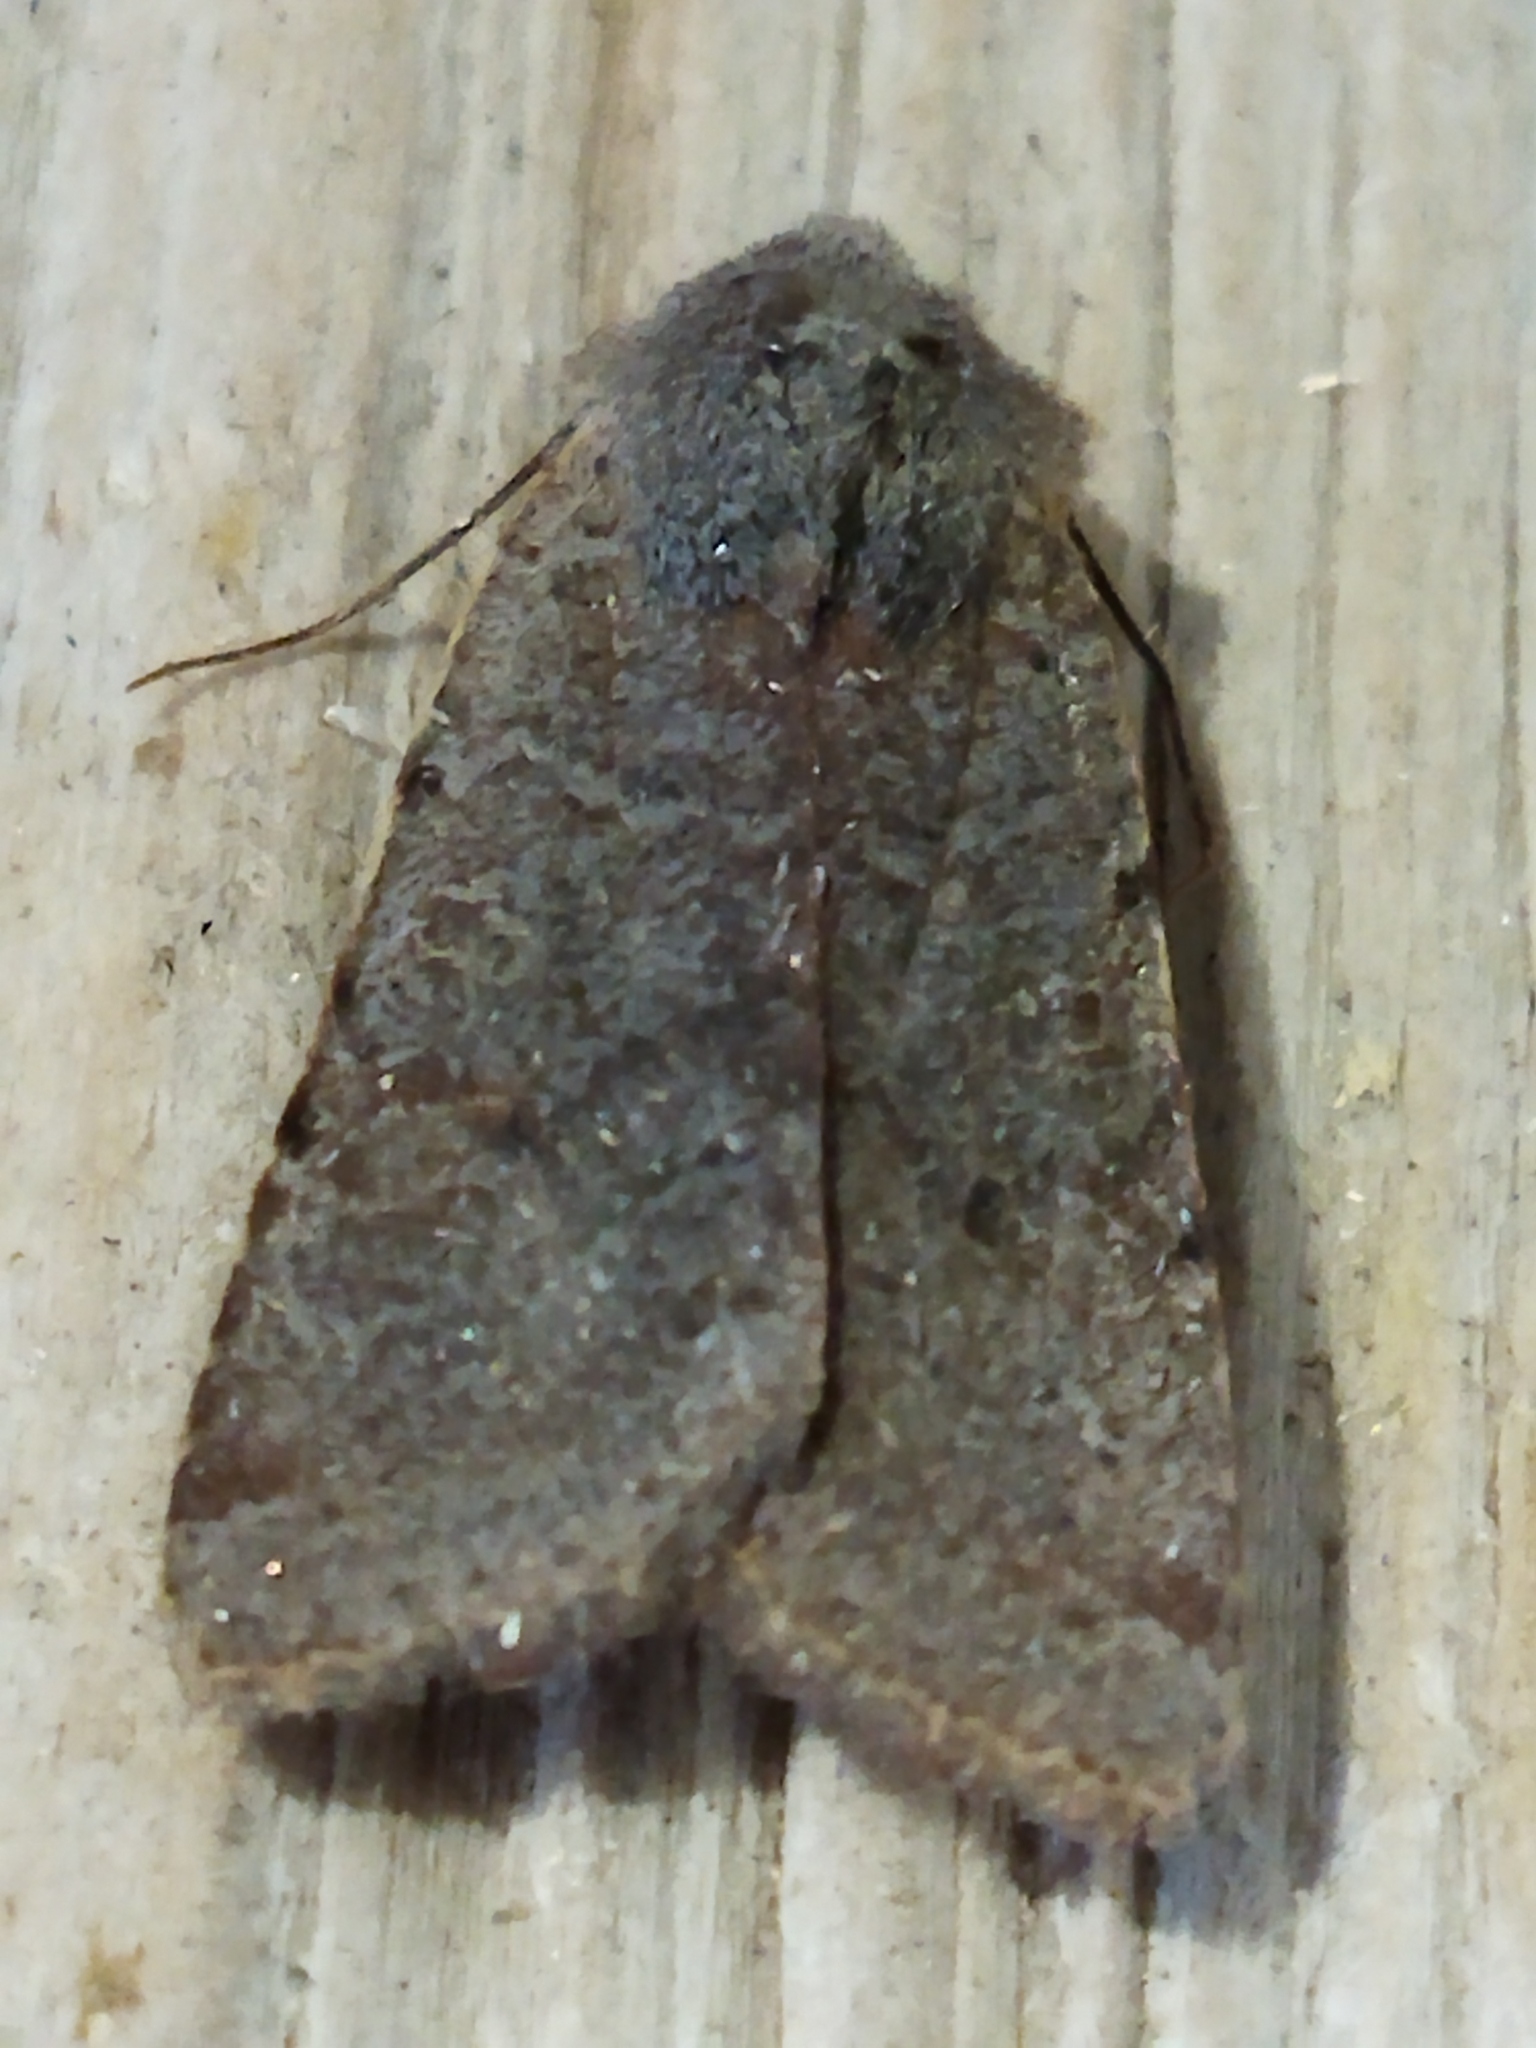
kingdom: Animalia
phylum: Arthropoda
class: Insecta
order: Lepidoptera
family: Noctuidae
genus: Agrochola
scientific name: Agrochola lychnidis
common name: Beaded chestnut
